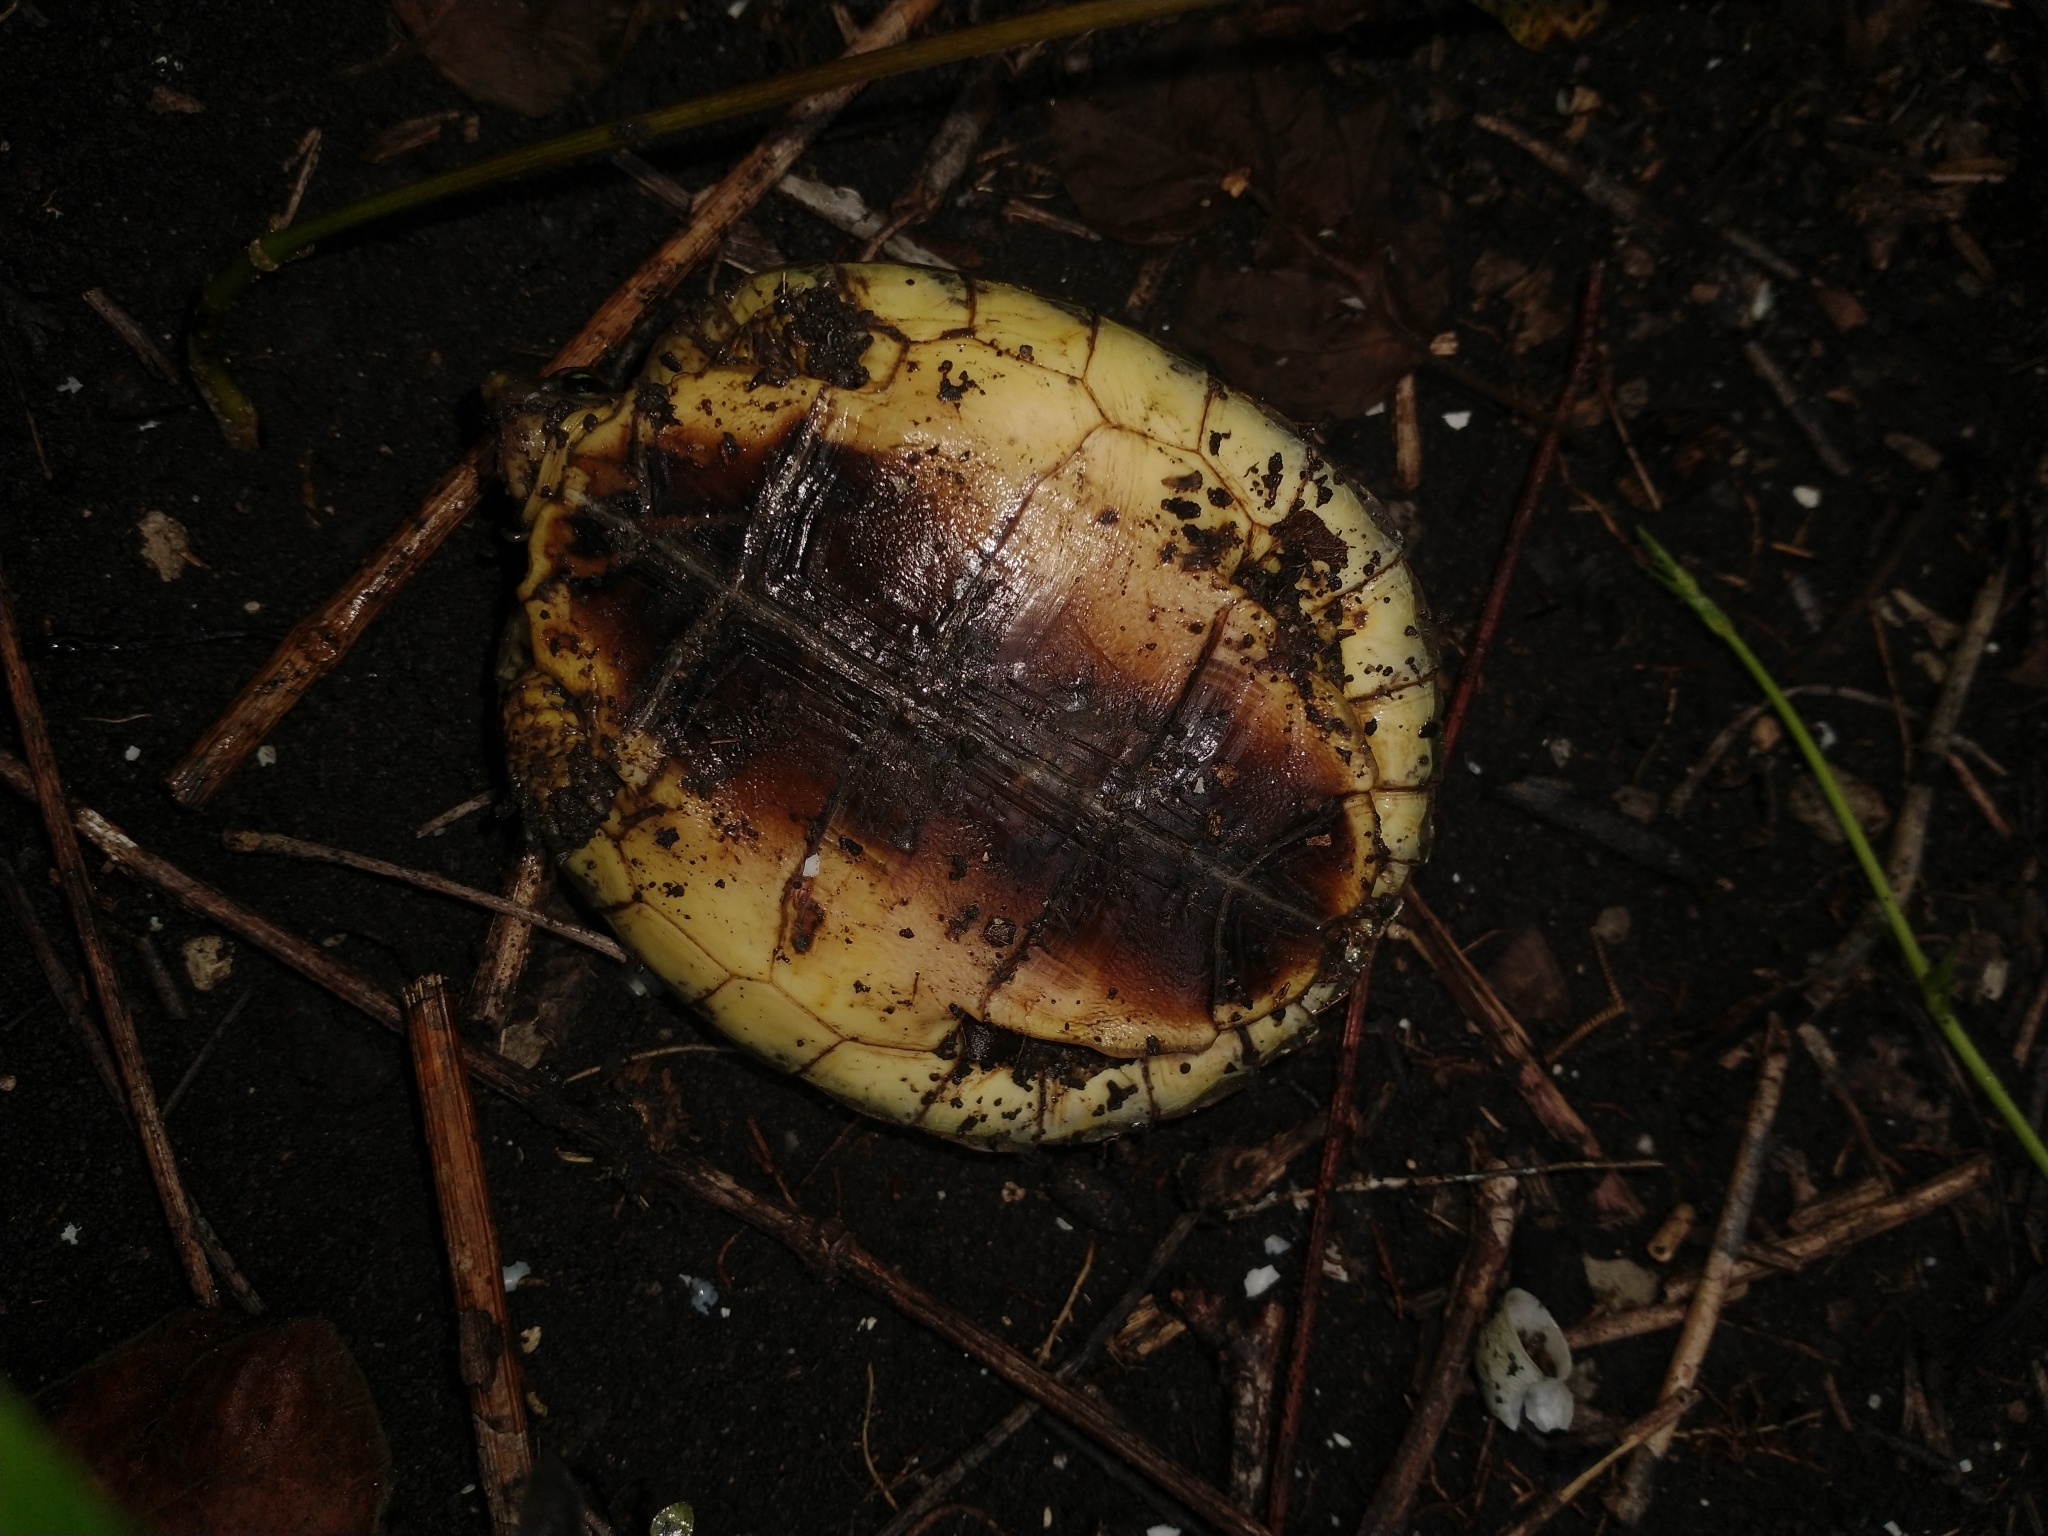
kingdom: Animalia
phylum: Chordata
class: Testudines
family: Geoemydidae
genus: Rhinoclemmys
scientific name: Rhinoclemmys areolata
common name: Furrowed wood turtle
